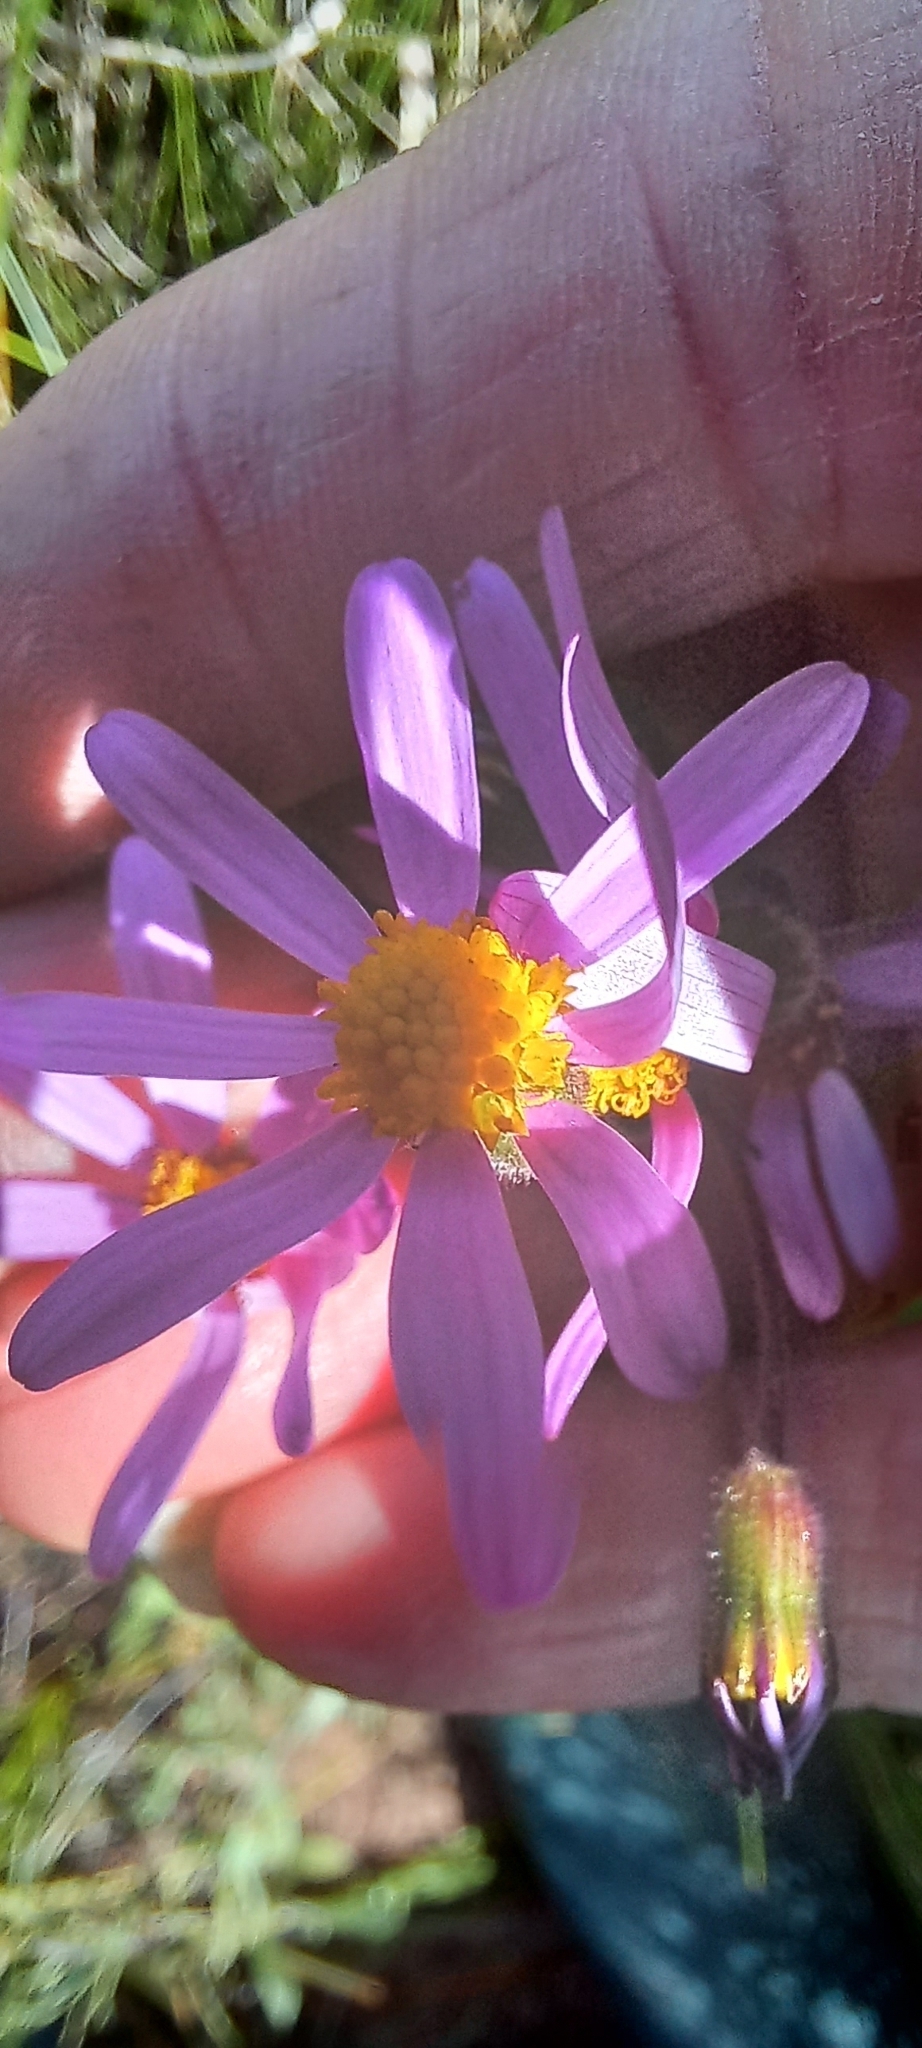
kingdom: Plantae
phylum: Tracheophyta
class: Magnoliopsida
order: Asterales
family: Asteraceae
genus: Senecio
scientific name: Senecio arenarius
